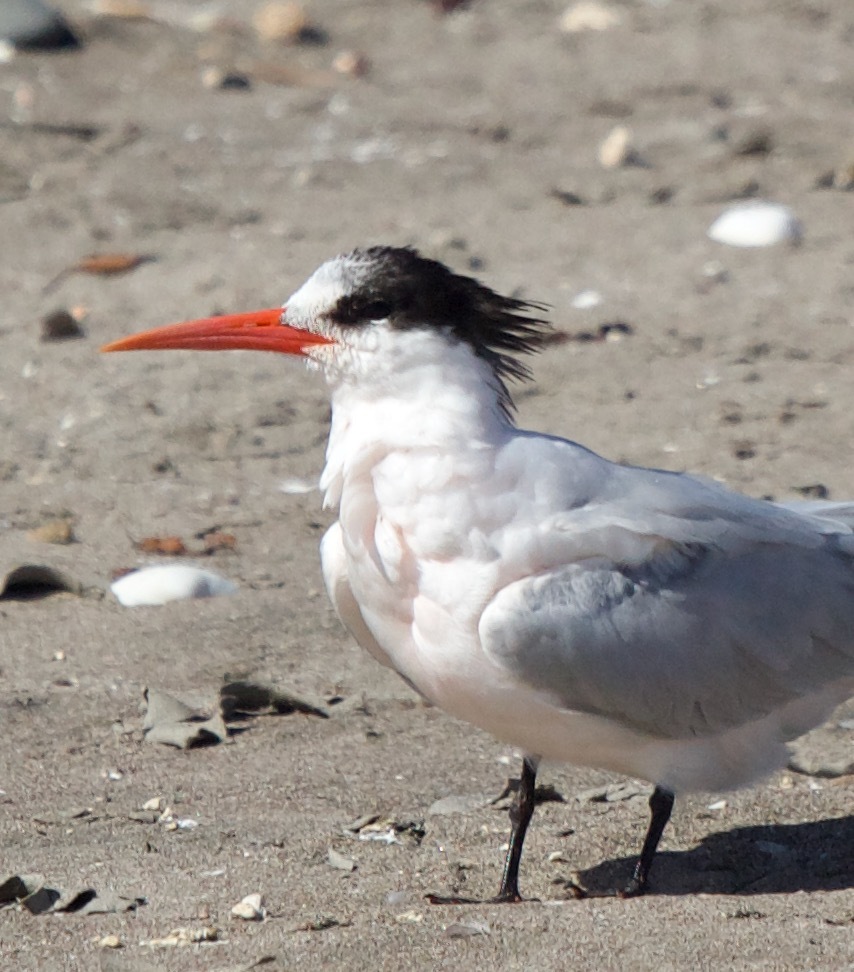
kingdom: Animalia
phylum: Chordata
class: Aves
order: Charadriiformes
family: Laridae
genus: Thalasseus
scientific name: Thalasseus elegans
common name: Elegant tern
